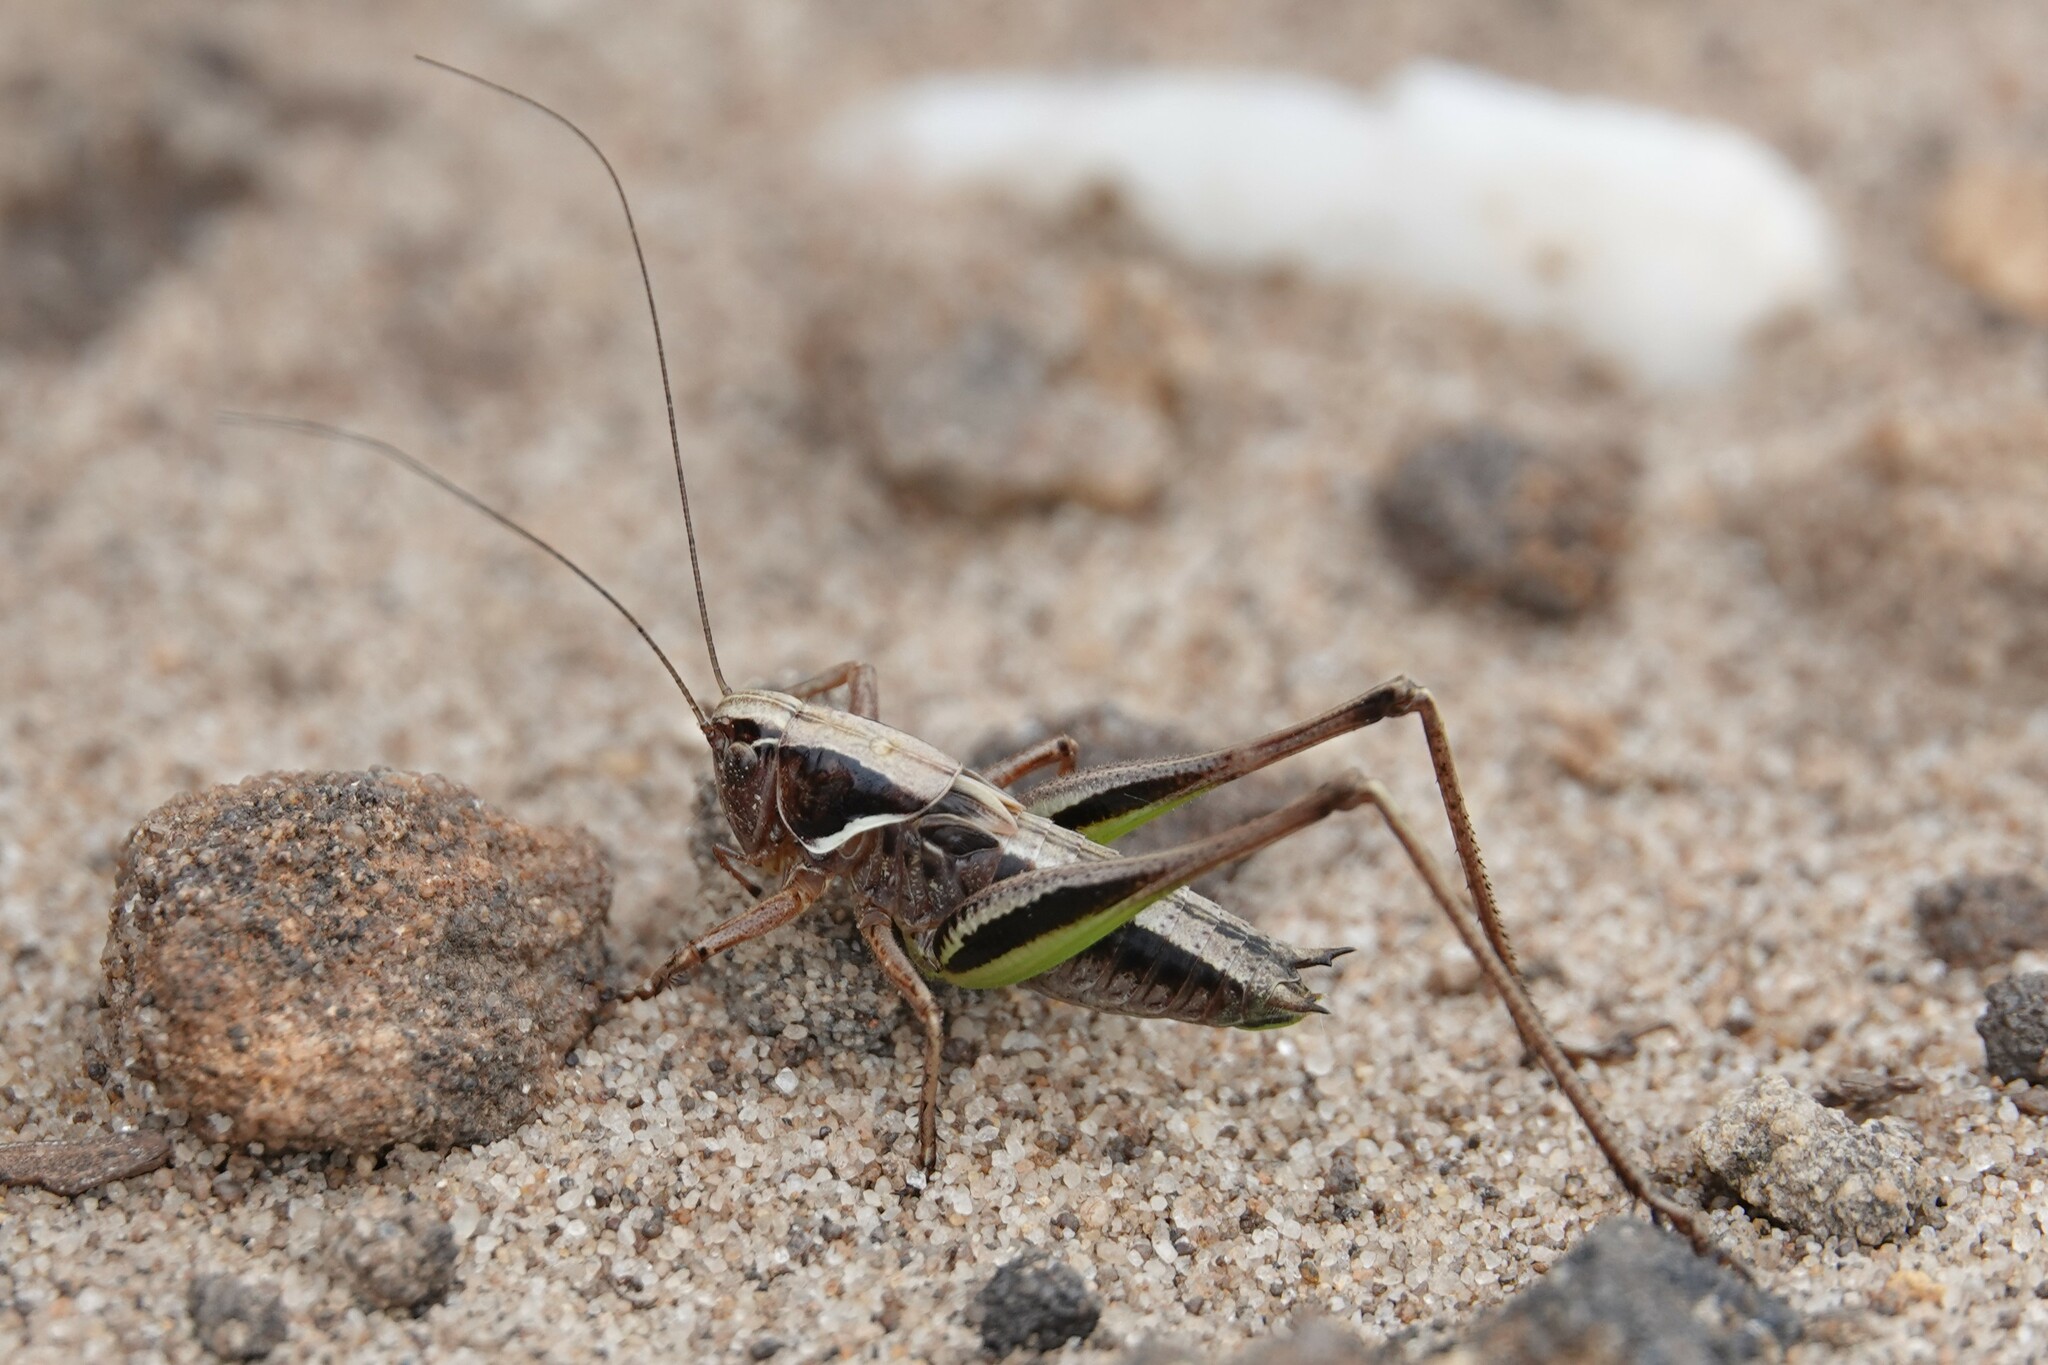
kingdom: Animalia
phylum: Arthropoda
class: Insecta
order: Orthoptera
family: Tettigoniidae
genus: Metrioptera
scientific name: Metrioptera brachyptera
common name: Bog bush-cricket
